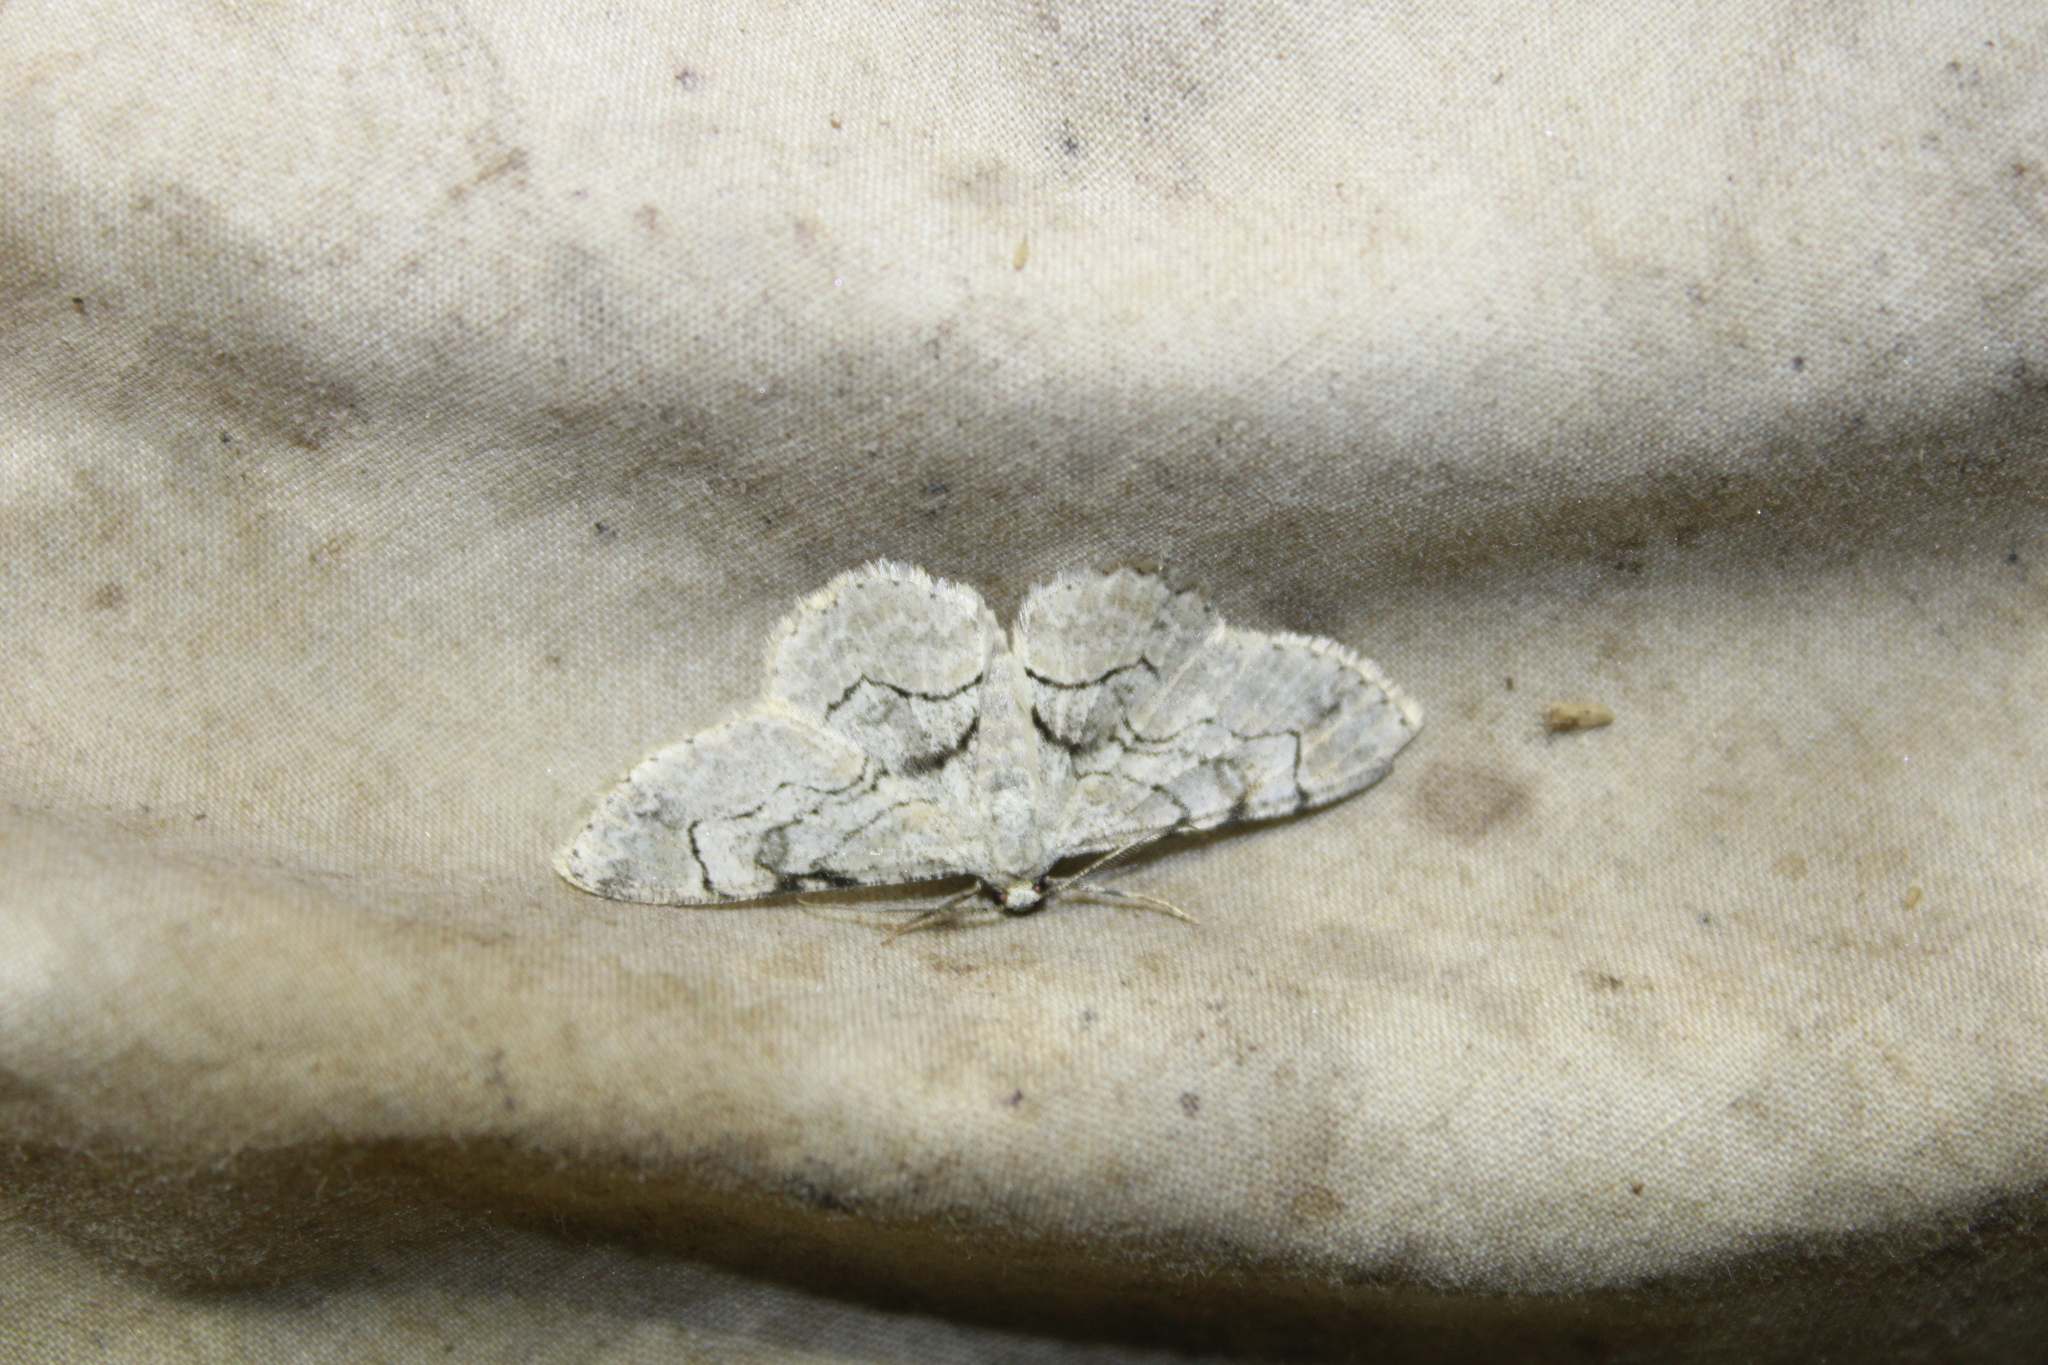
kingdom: Animalia
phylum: Arthropoda
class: Insecta
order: Lepidoptera
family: Geometridae
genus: Iridopsis
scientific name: Iridopsis larvaria
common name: Bent-line gray
